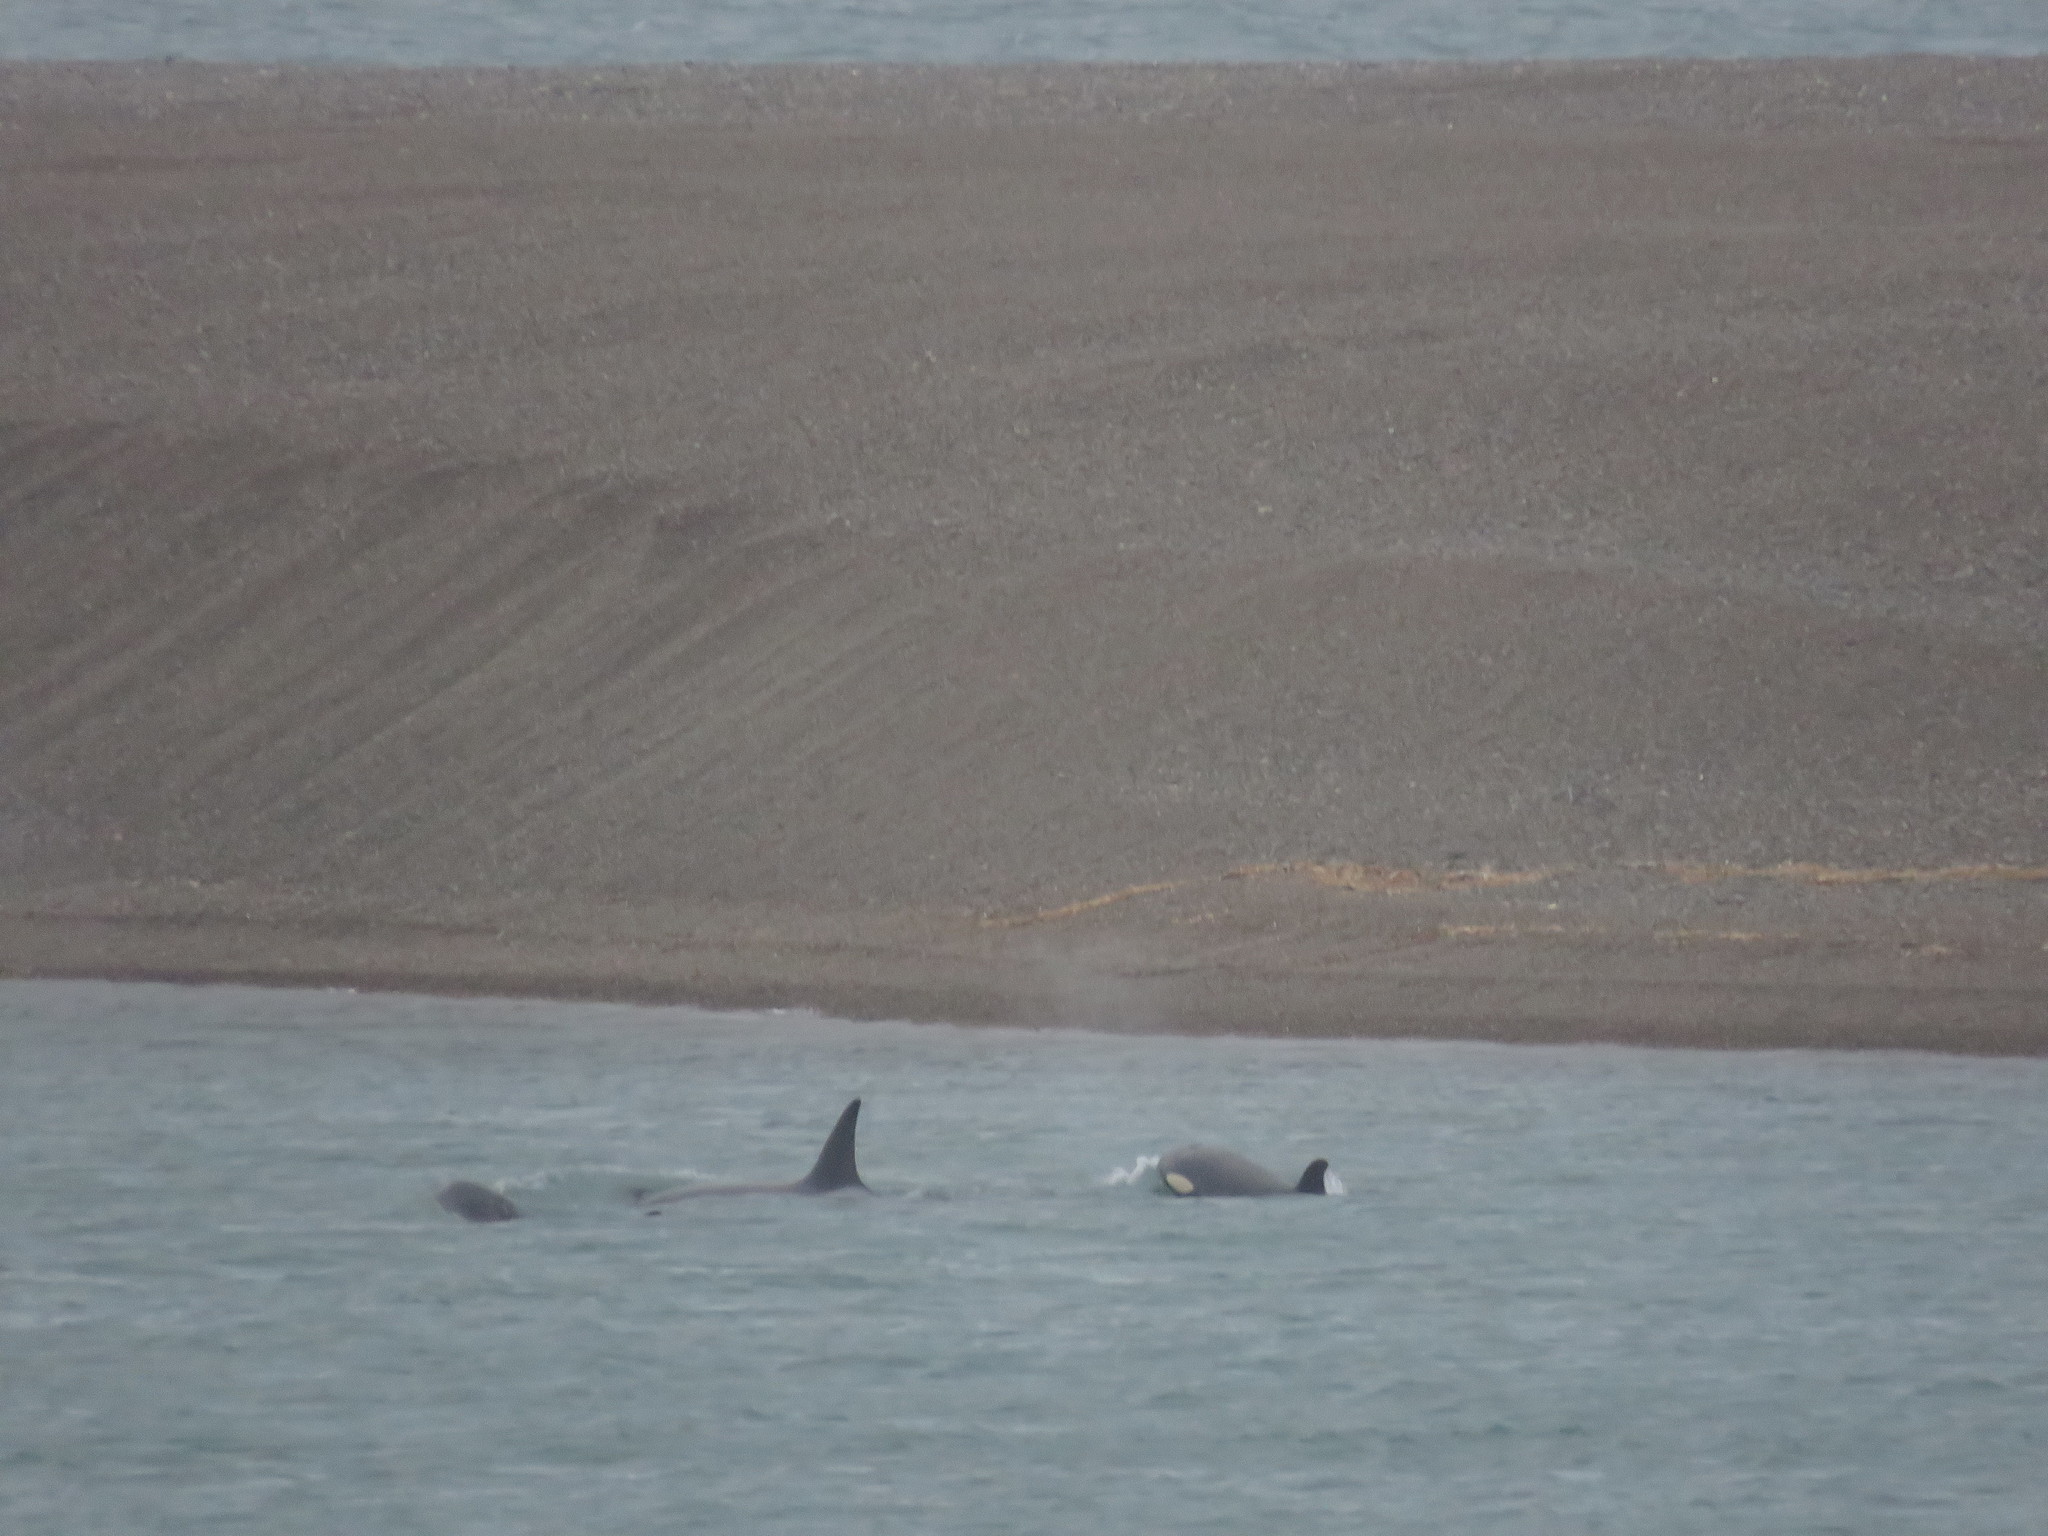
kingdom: Animalia
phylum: Chordata
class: Mammalia
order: Cetacea
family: Delphinidae
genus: Orcinus
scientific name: Orcinus orca
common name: Killer whale
